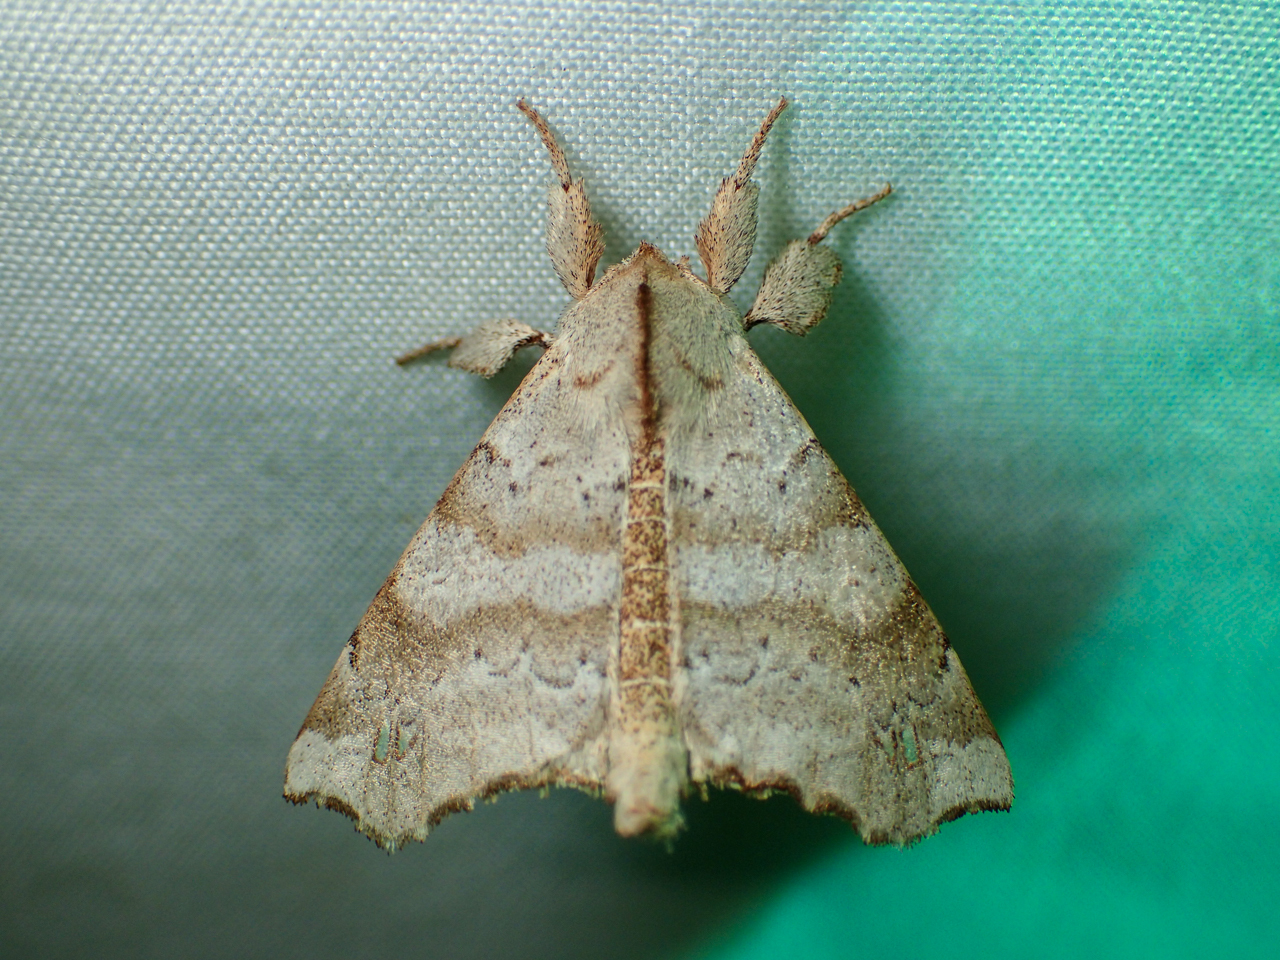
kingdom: Animalia
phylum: Arthropoda
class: Insecta
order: Lepidoptera
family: Apatelodidae
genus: Olceclostera
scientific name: Olceclostera angelica
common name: Angel moth
